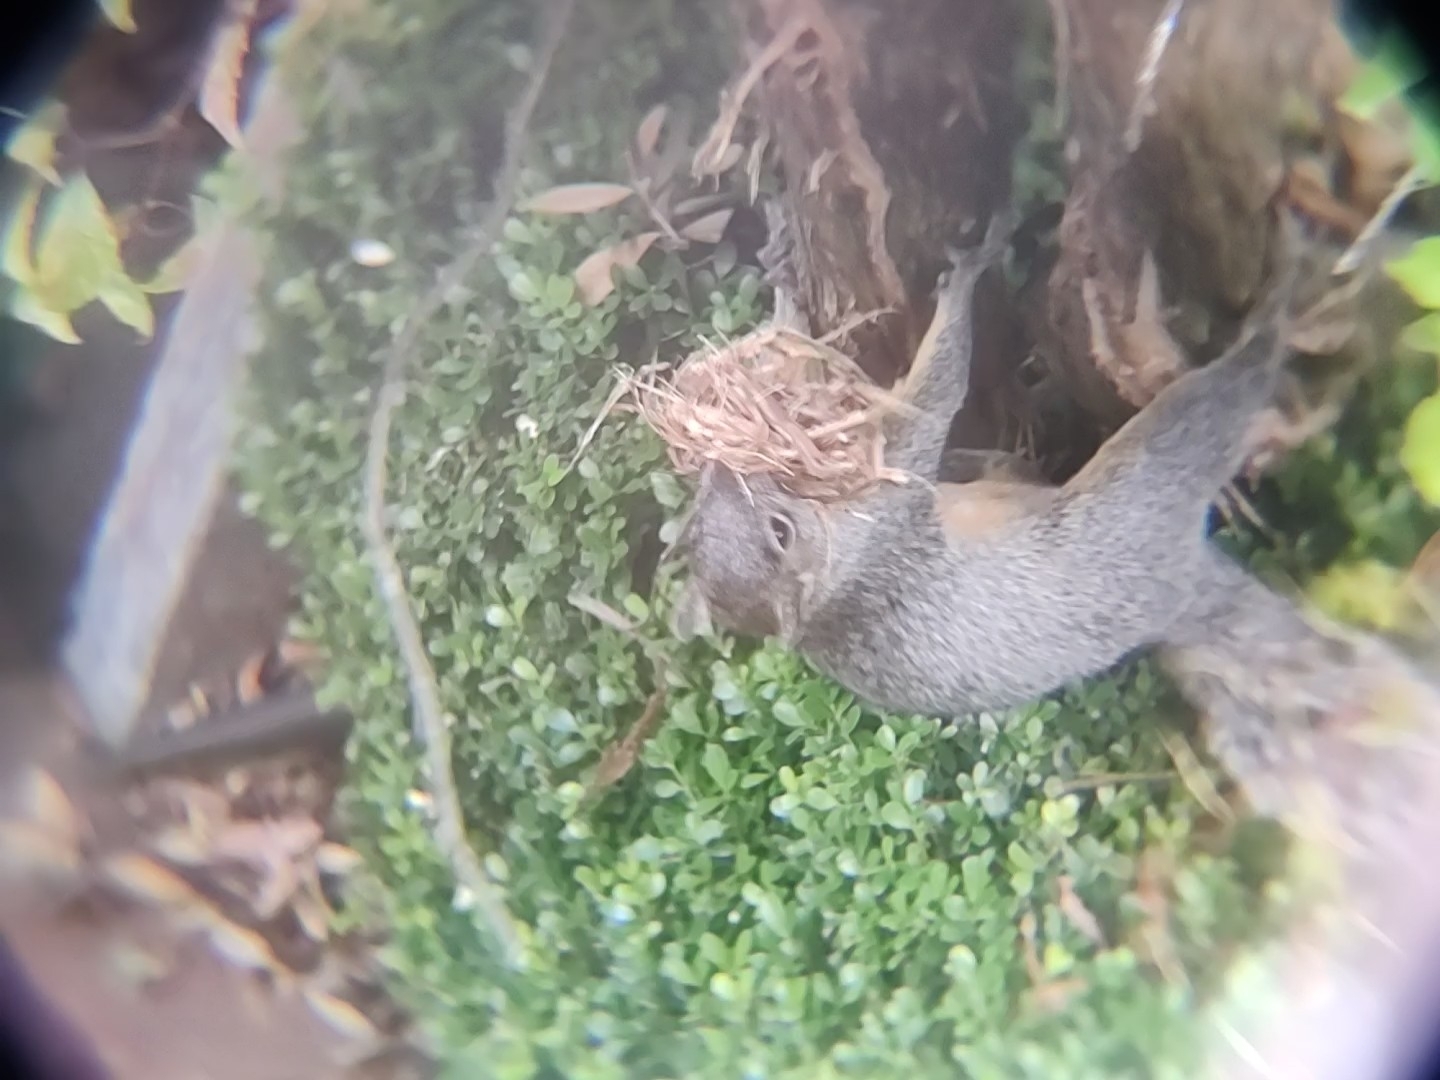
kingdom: Animalia
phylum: Chordata
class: Mammalia
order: Rodentia
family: Sciuridae
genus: Sciurus
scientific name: Sciurus aureogaster
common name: Red-bellied squirrel
